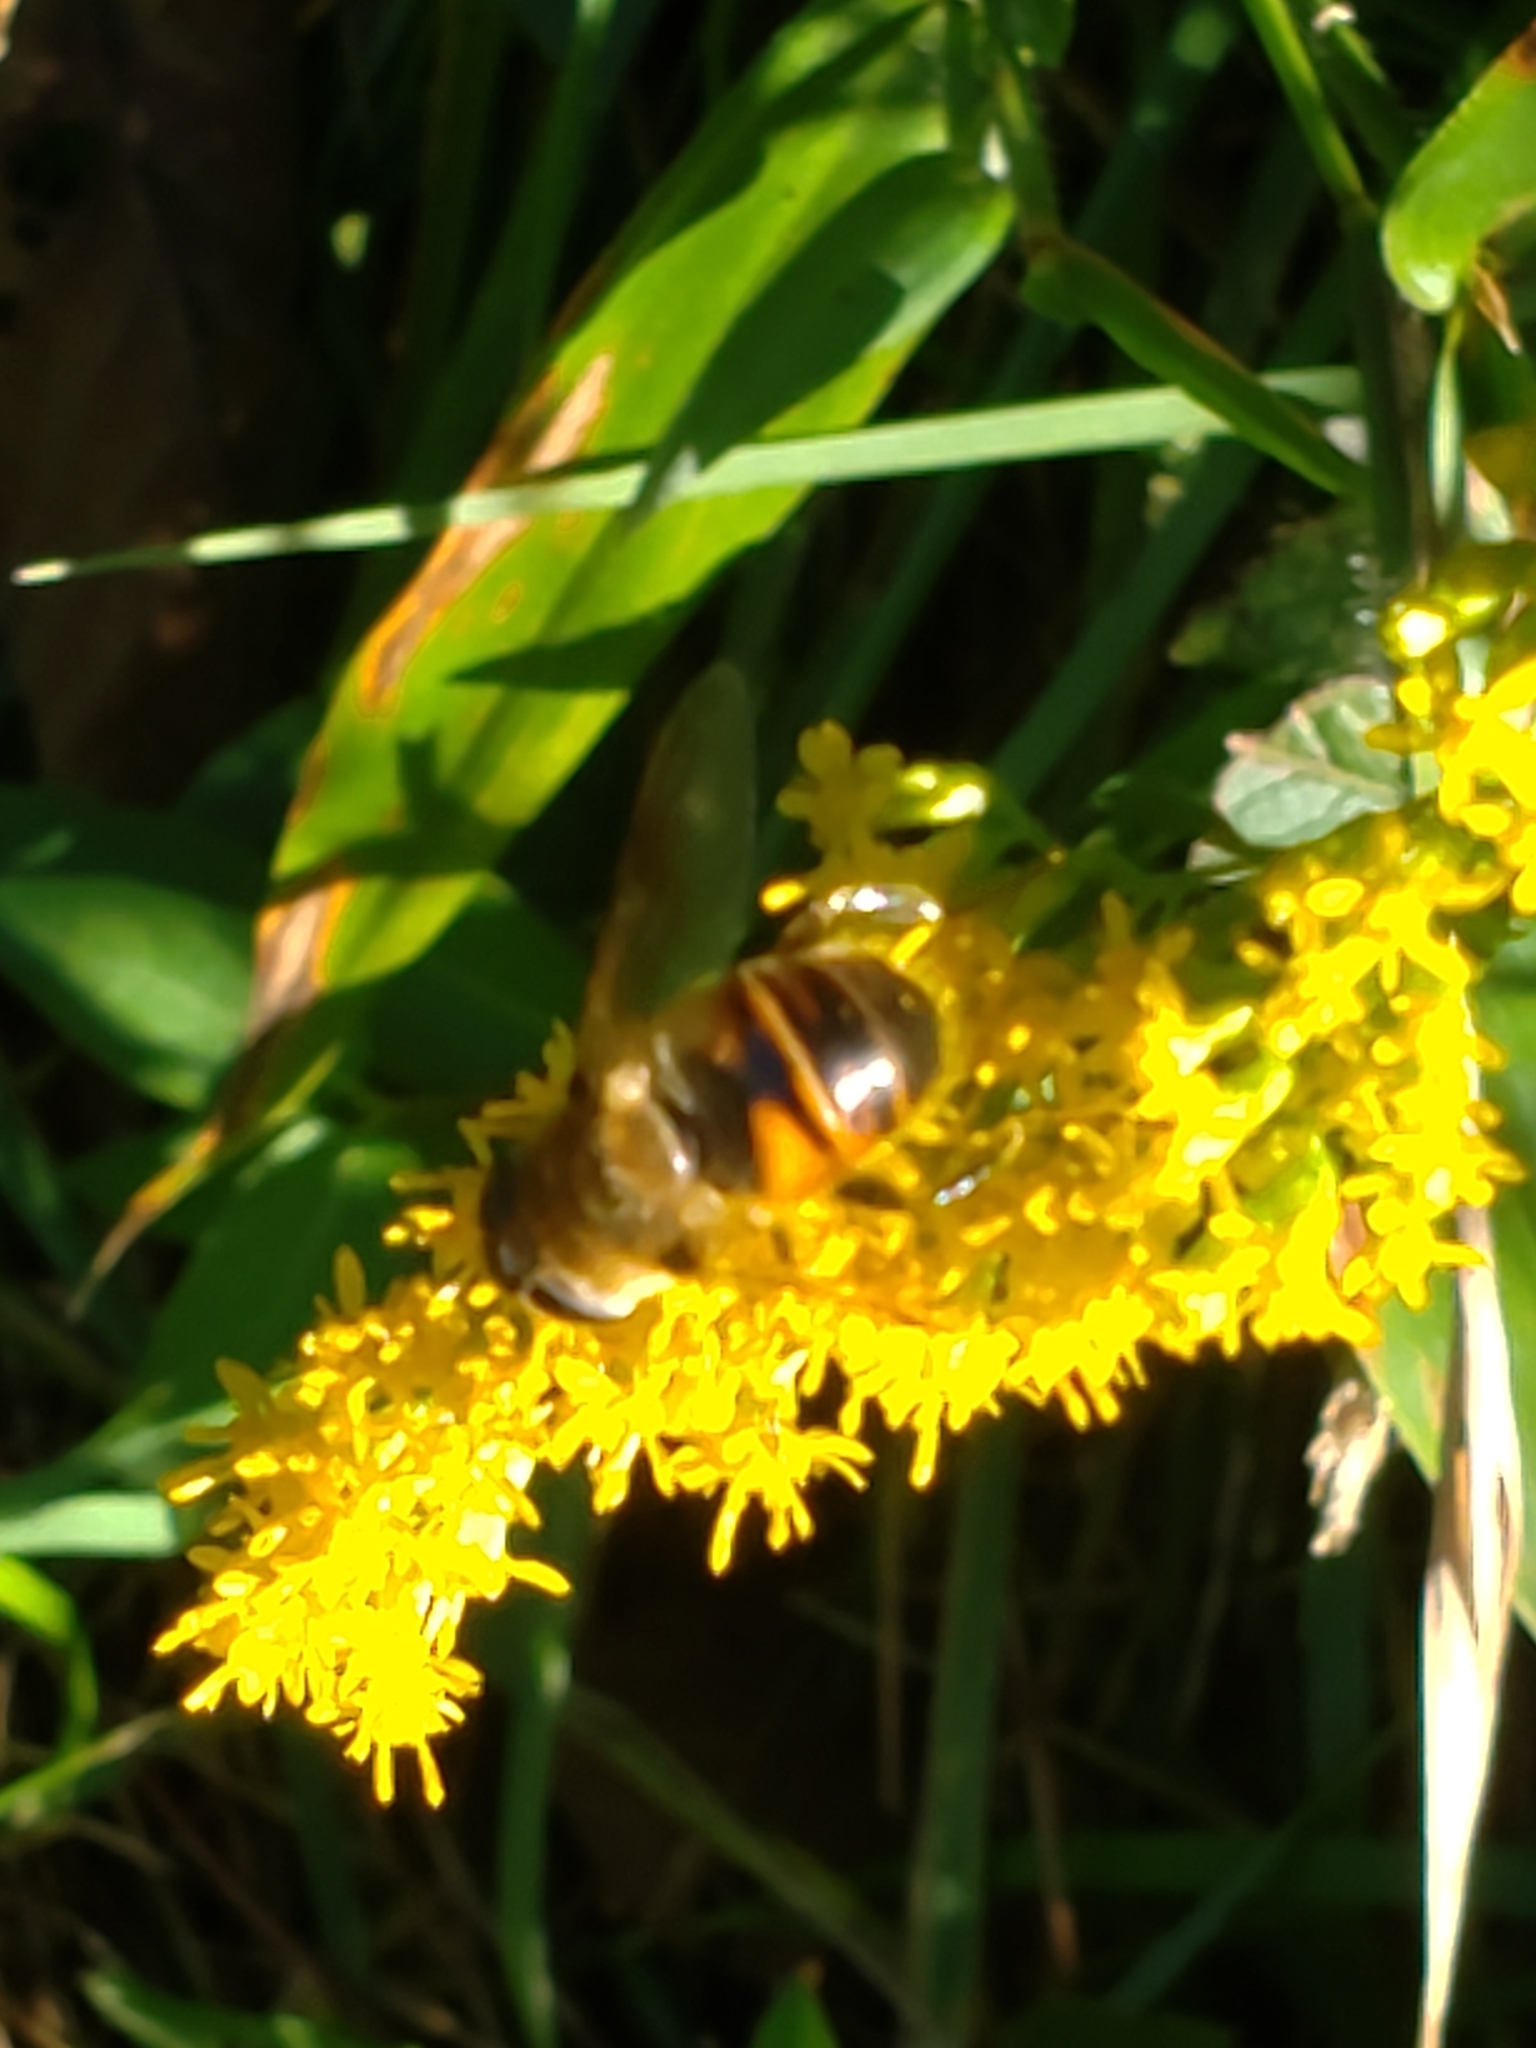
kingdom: Animalia
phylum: Arthropoda
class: Insecta
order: Diptera
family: Syrphidae
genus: Eristalis
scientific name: Eristalis tenax
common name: Drone fly
